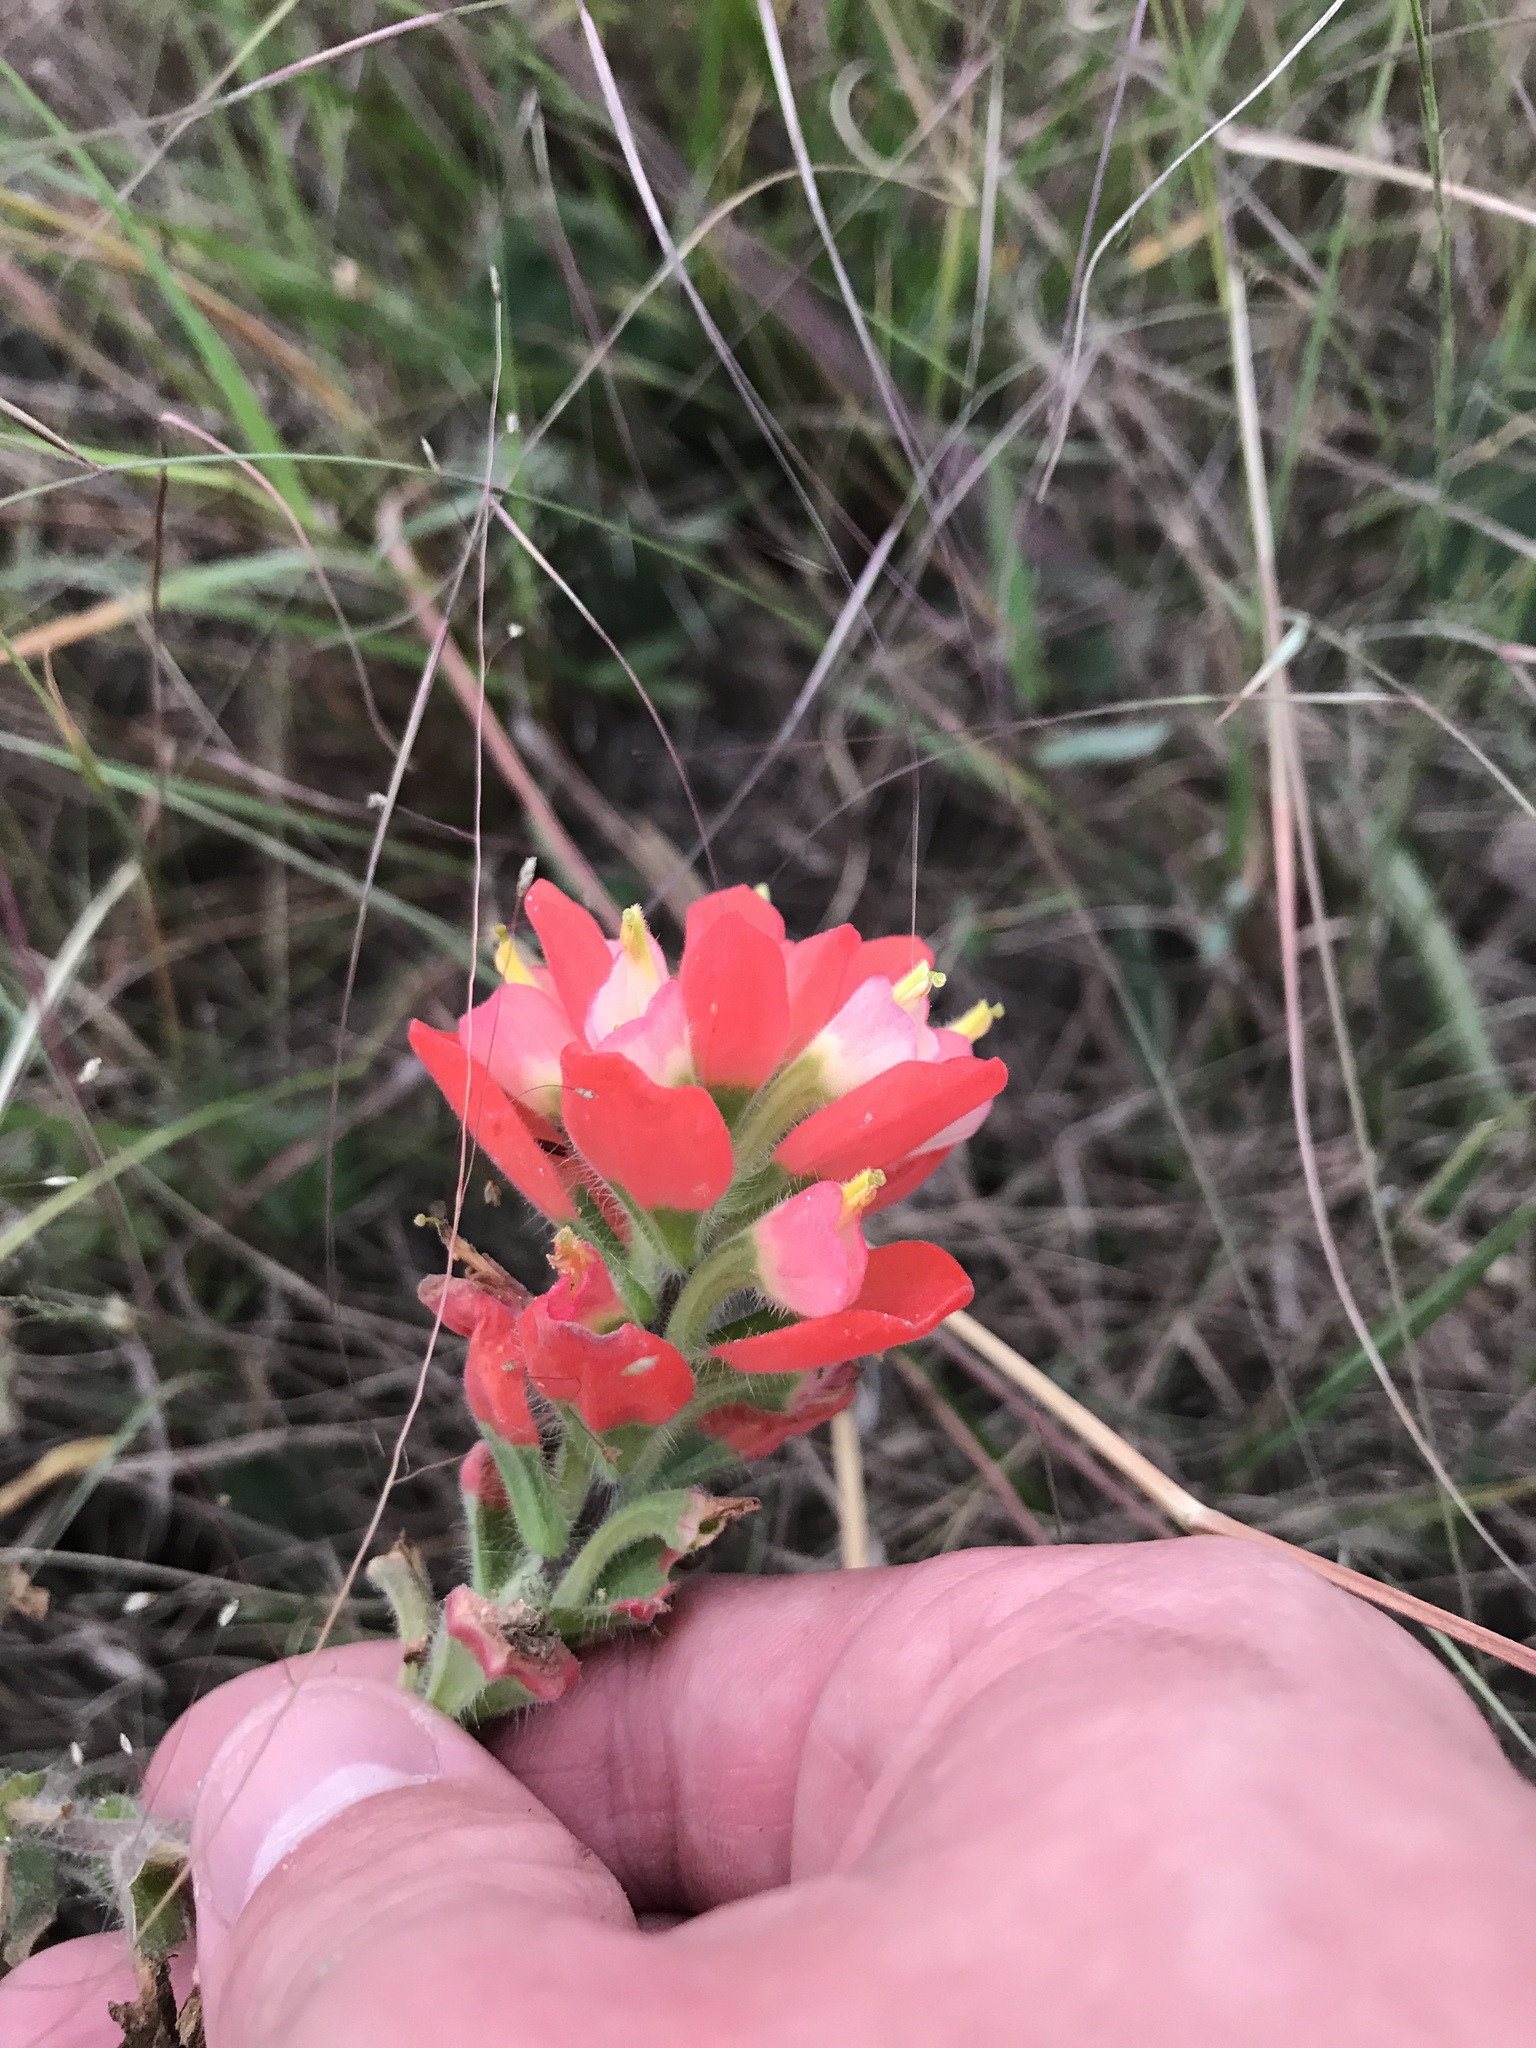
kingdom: Plantae
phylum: Tracheophyta
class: Magnoliopsida
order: Lamiales
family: Orobanchaceae
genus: Castilleja
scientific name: Castilleja indivisa
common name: Texas paintbrush
